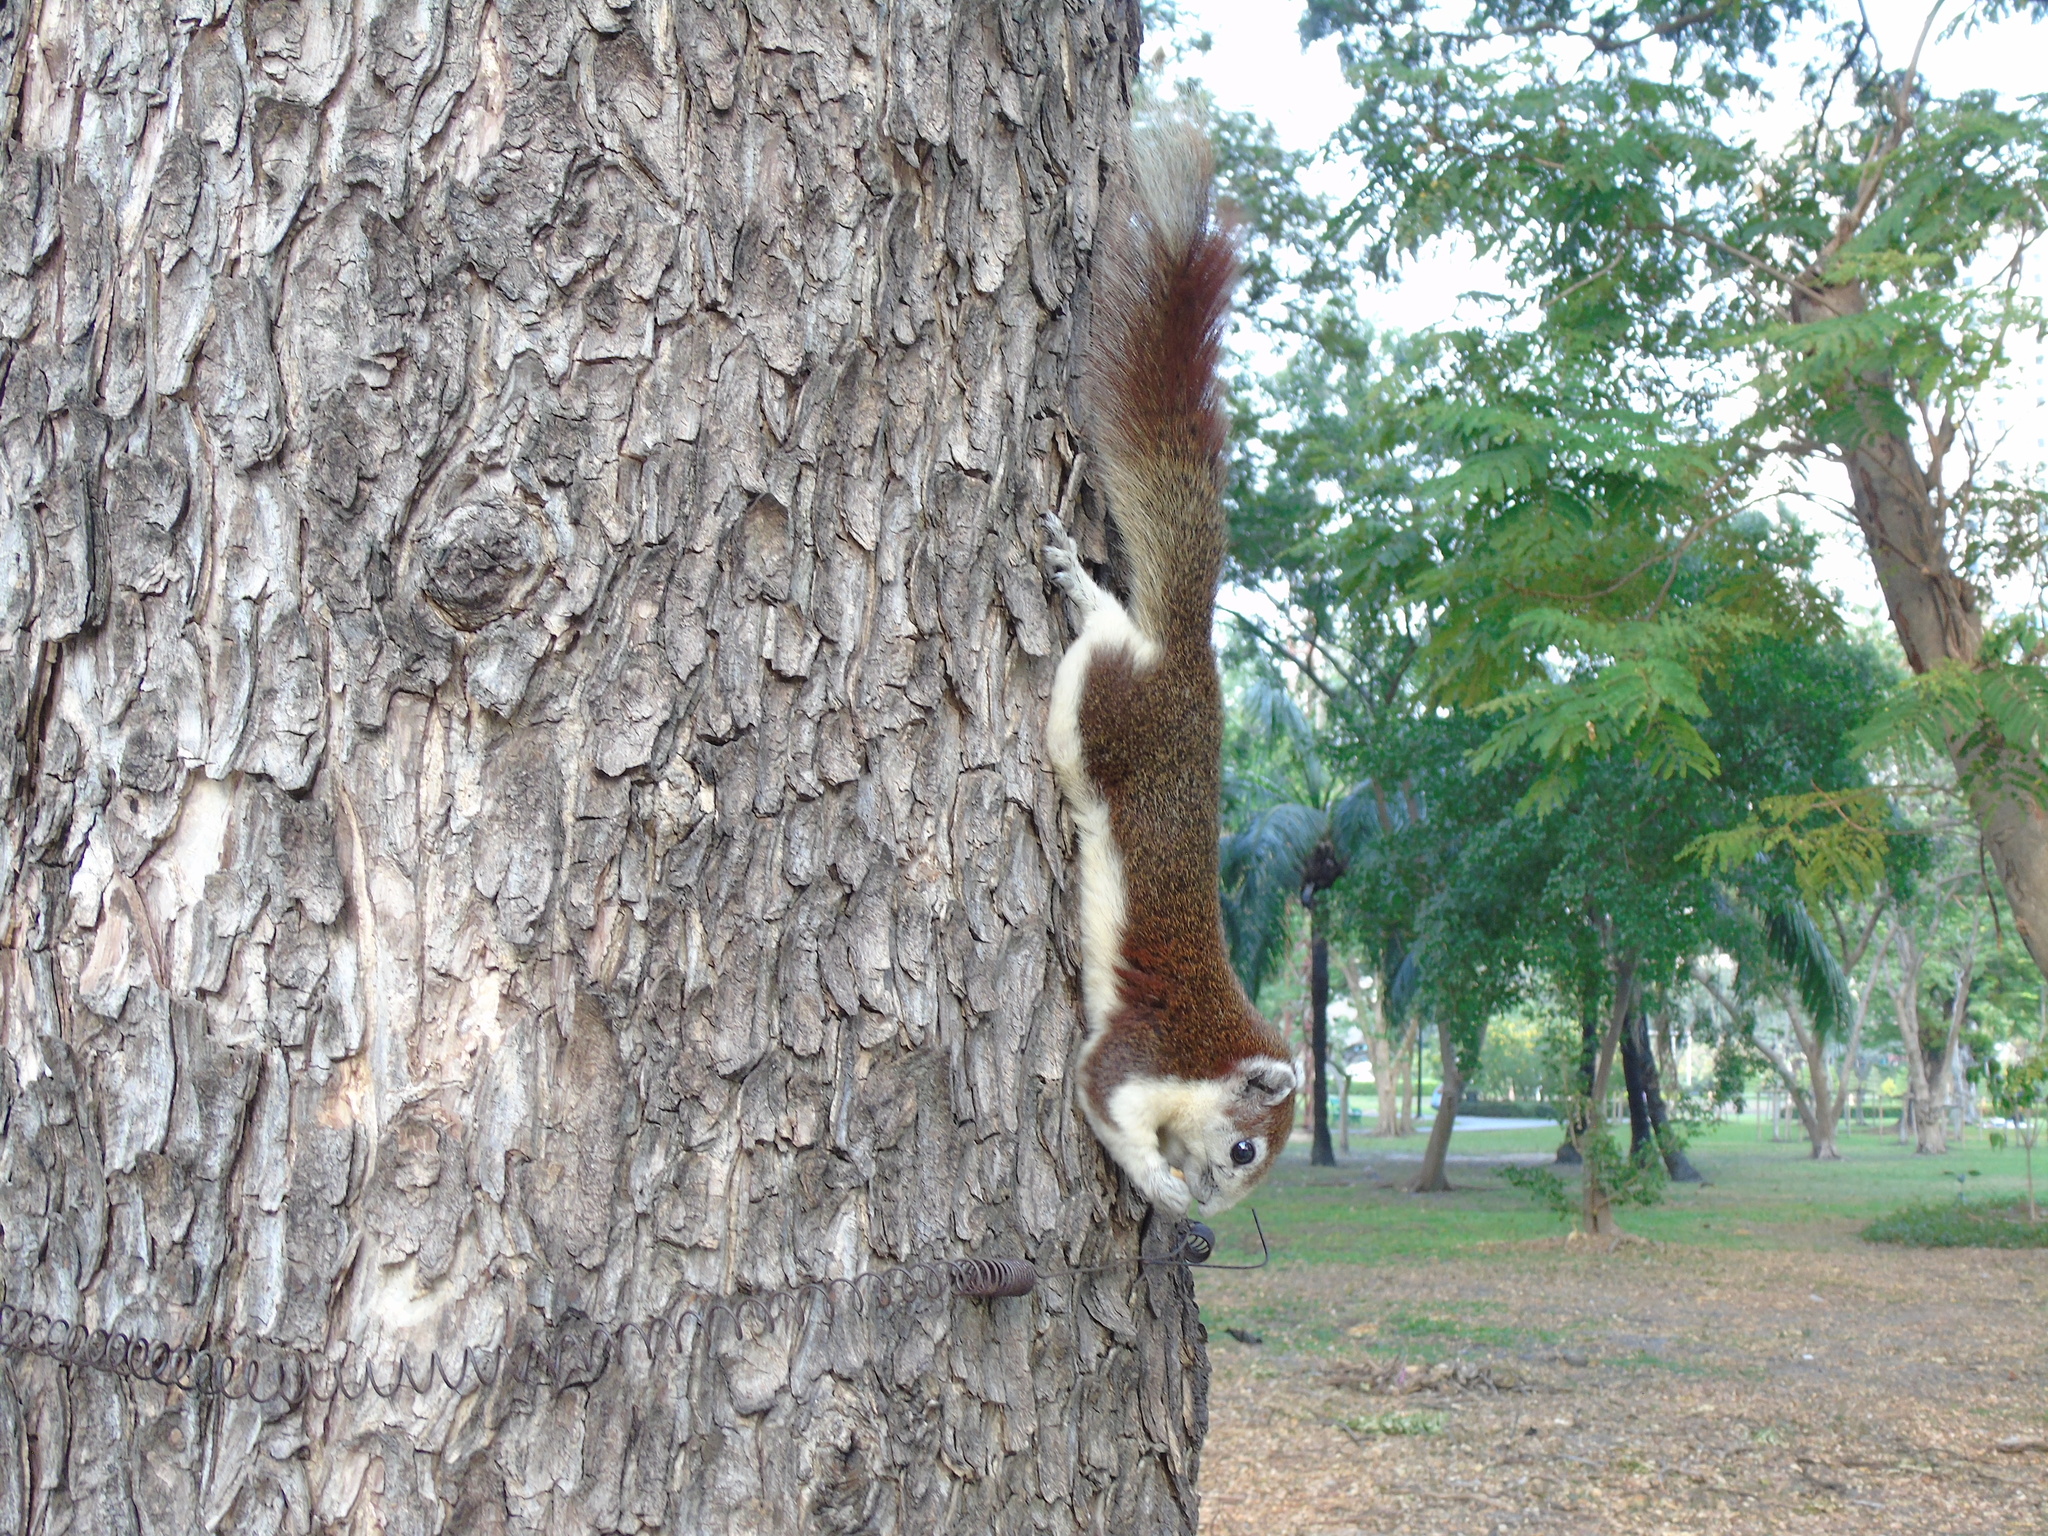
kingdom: Animalia
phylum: Chordata
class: Mammalia
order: Rodentia
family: Sciuridae
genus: Callosciurus
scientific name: Callosciurus finlaysonii
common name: Finlayson's squirrel
